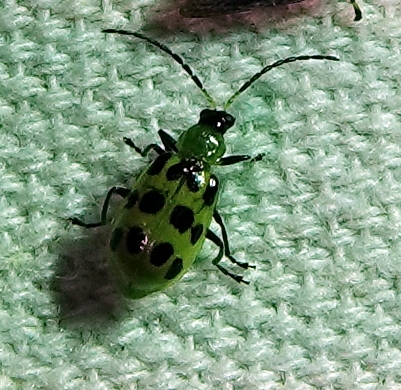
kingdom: Animalia
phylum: Arthropoda
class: Insecta
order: Coleoptera
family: Chrysomelidae
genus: Diabrotica
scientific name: Diabrotica undecimpunctata
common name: Spotted cucumber beetle
